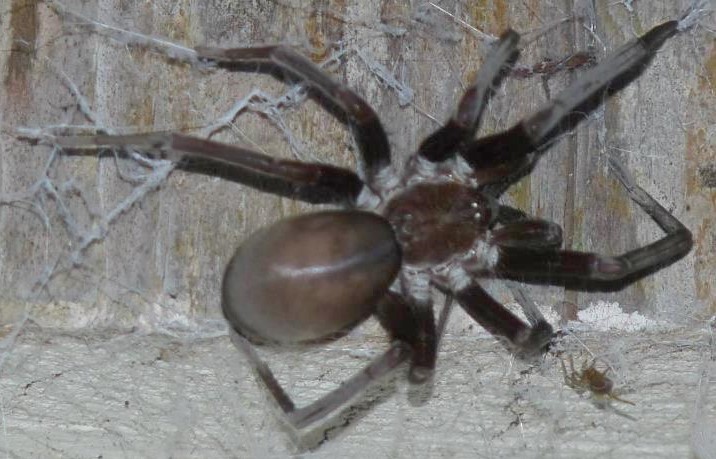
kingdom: Animalia
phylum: Arthropoda
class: Arachnida
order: Araneae
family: Filistatidae
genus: Kukulcania
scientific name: Kukulcania hibernalis
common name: Crevice weaver
